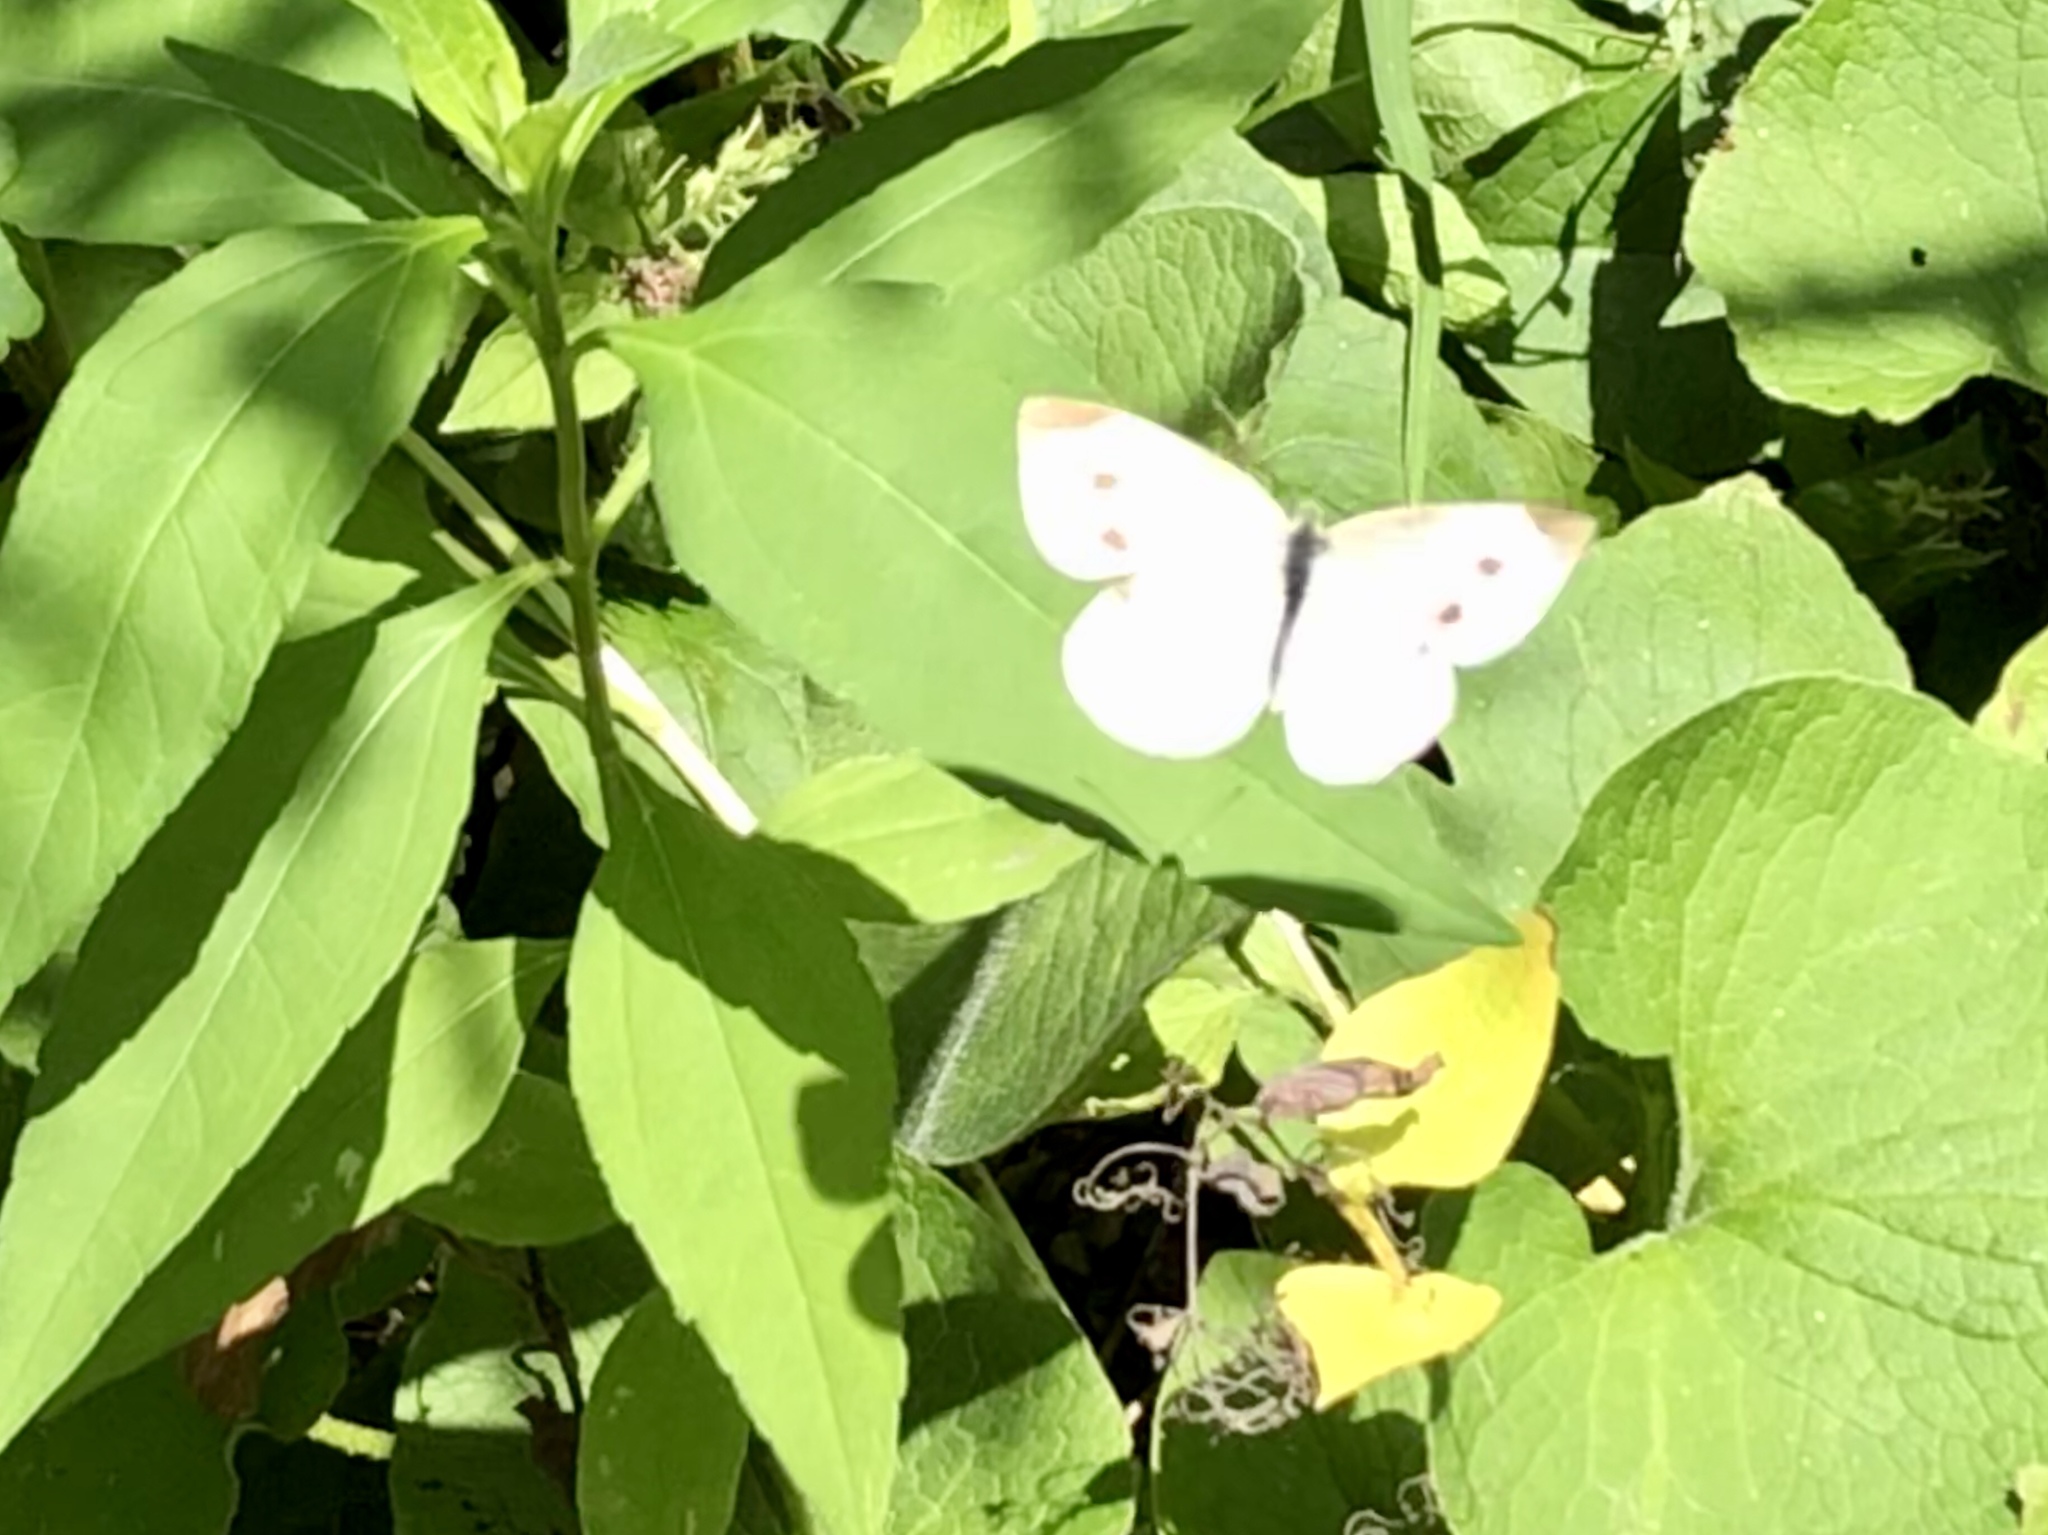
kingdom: Animalia
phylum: Arthropoda
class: Insecta
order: Lepidoptera
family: Pieridae
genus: Pieris
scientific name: Pieris rapae
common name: Small white
